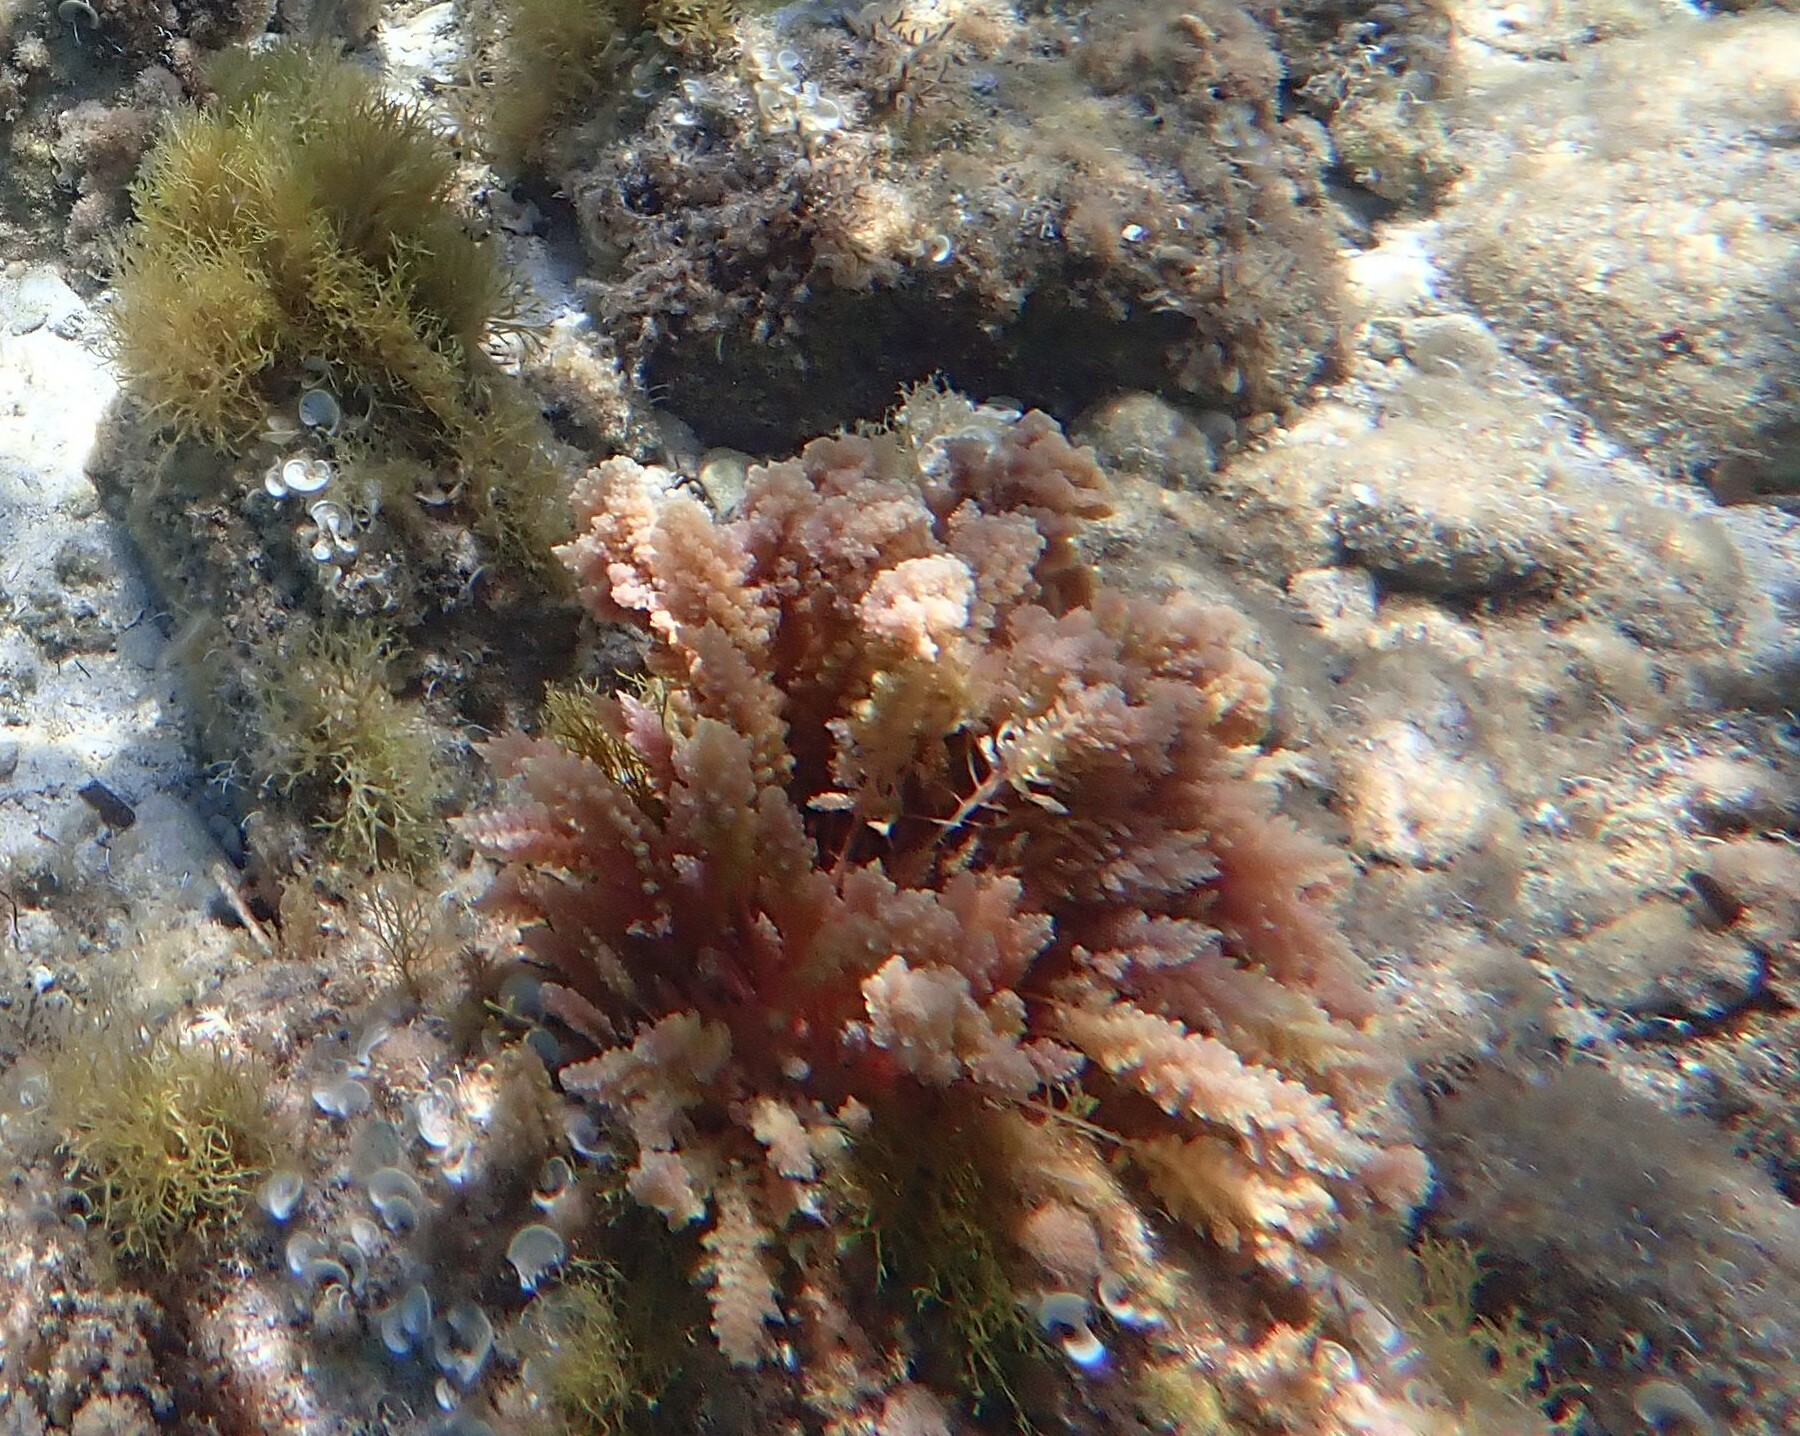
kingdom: Plantae
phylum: Rhodophyta
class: Florideophyceae
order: Bonnemaisoniales
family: Bonnemaisoniaceae
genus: Asparagopsis
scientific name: Asparagopsis taxiformis
